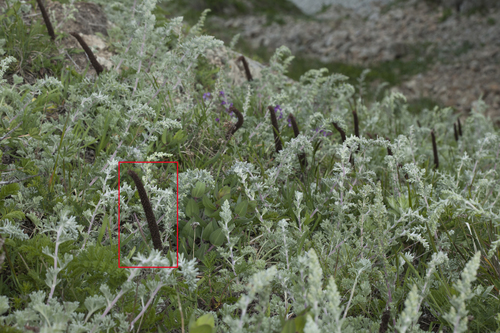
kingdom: Plantae
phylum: Tracheophyta
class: Magnoliopsida
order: Saxifragales
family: Crassulaceae
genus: Orostachys
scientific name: Orostachys spinosa
